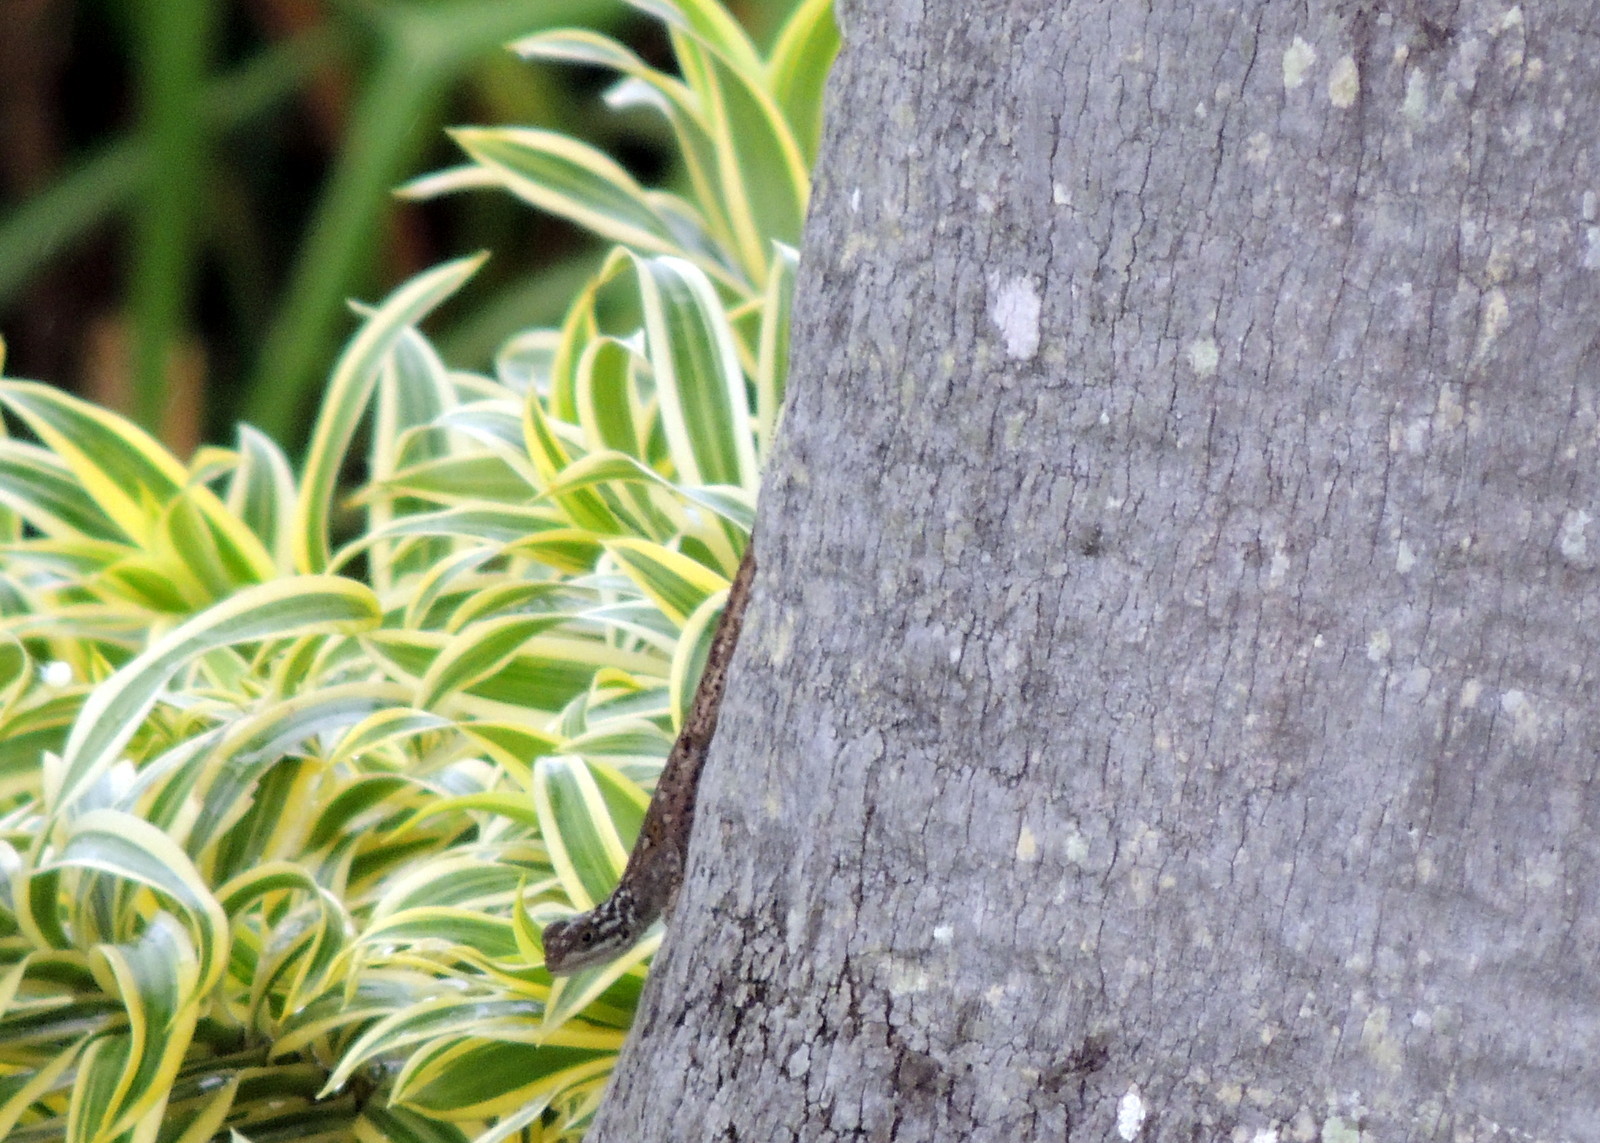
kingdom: Animalia
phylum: Chordata
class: Squamata
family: Agamidae
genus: Agama
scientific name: Agama picticauda
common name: Red-headed agama
